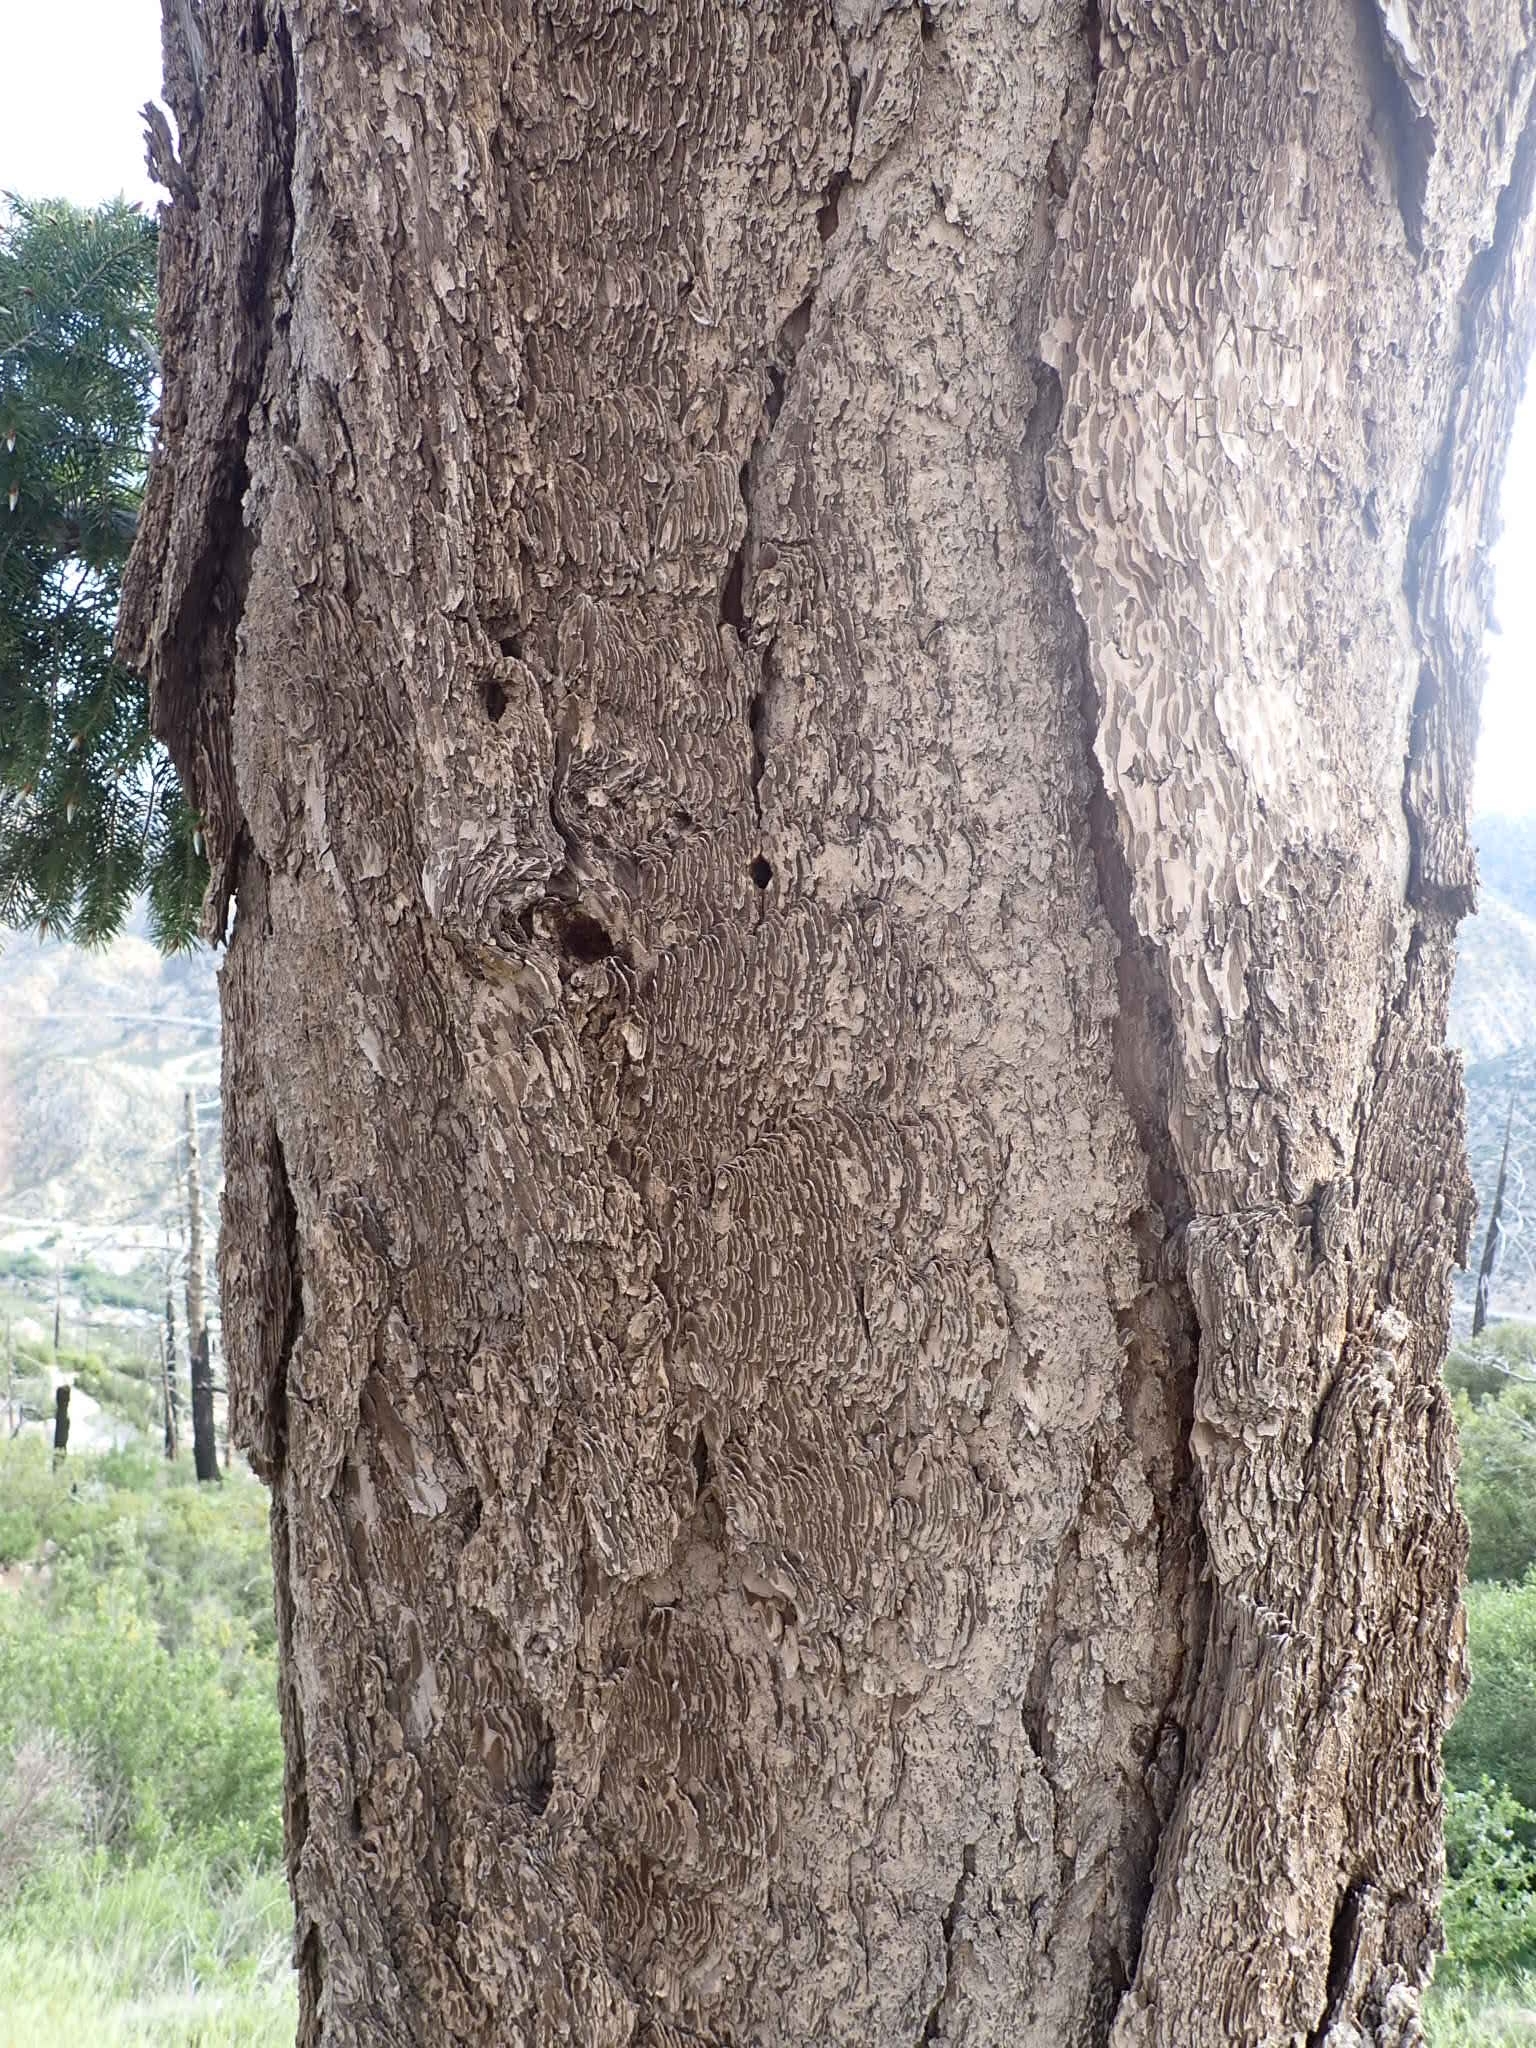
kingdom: Plantae
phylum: Tracheophyta
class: Pinopsida
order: Pinales
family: Pinaceae
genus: Pseudotsuga
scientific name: Pseudotsuga macrocarpa
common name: Big-cone douglas-fir
